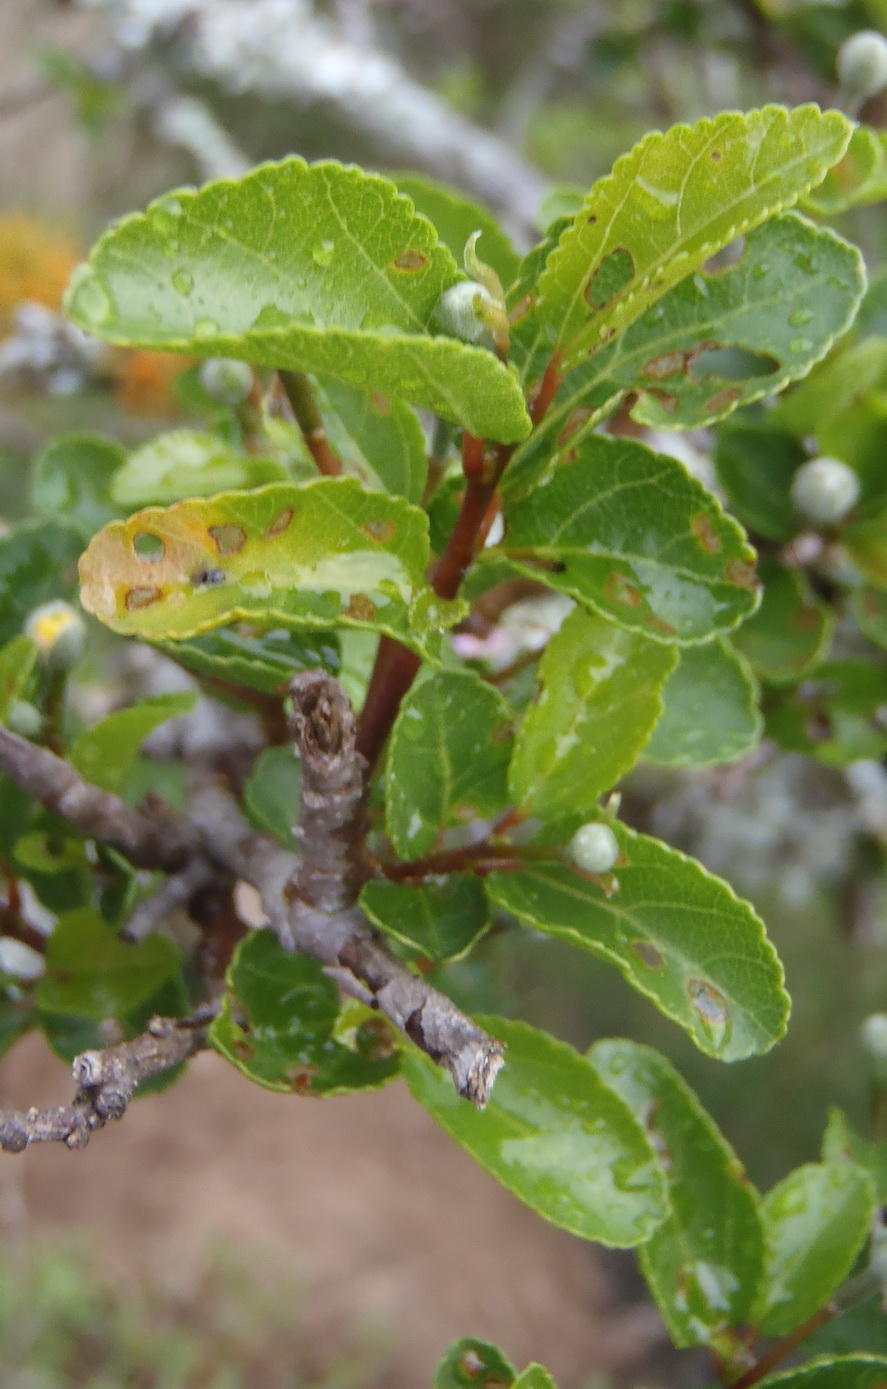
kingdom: Plantae
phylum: Tracheophyta
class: Magnoliopsida
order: Malvales
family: Malvaceae
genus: Grewia
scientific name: Grewia occidentalis
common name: Crossberry
